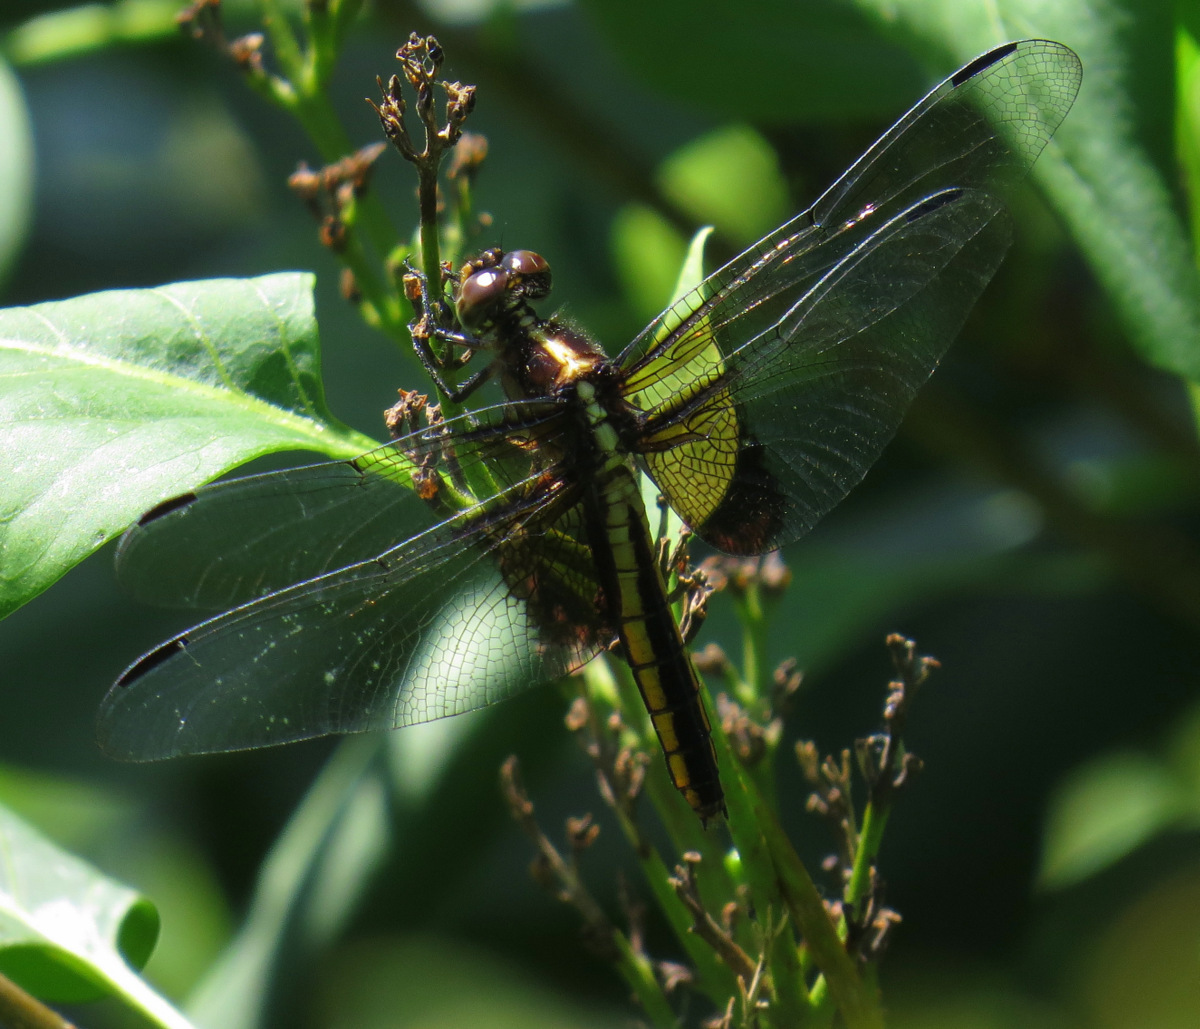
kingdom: Animalia
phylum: Arthropoda
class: Insecta
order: Odonata
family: Libellulidae
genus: Libellula
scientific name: Libellula luctuosa
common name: Widow skimmer
